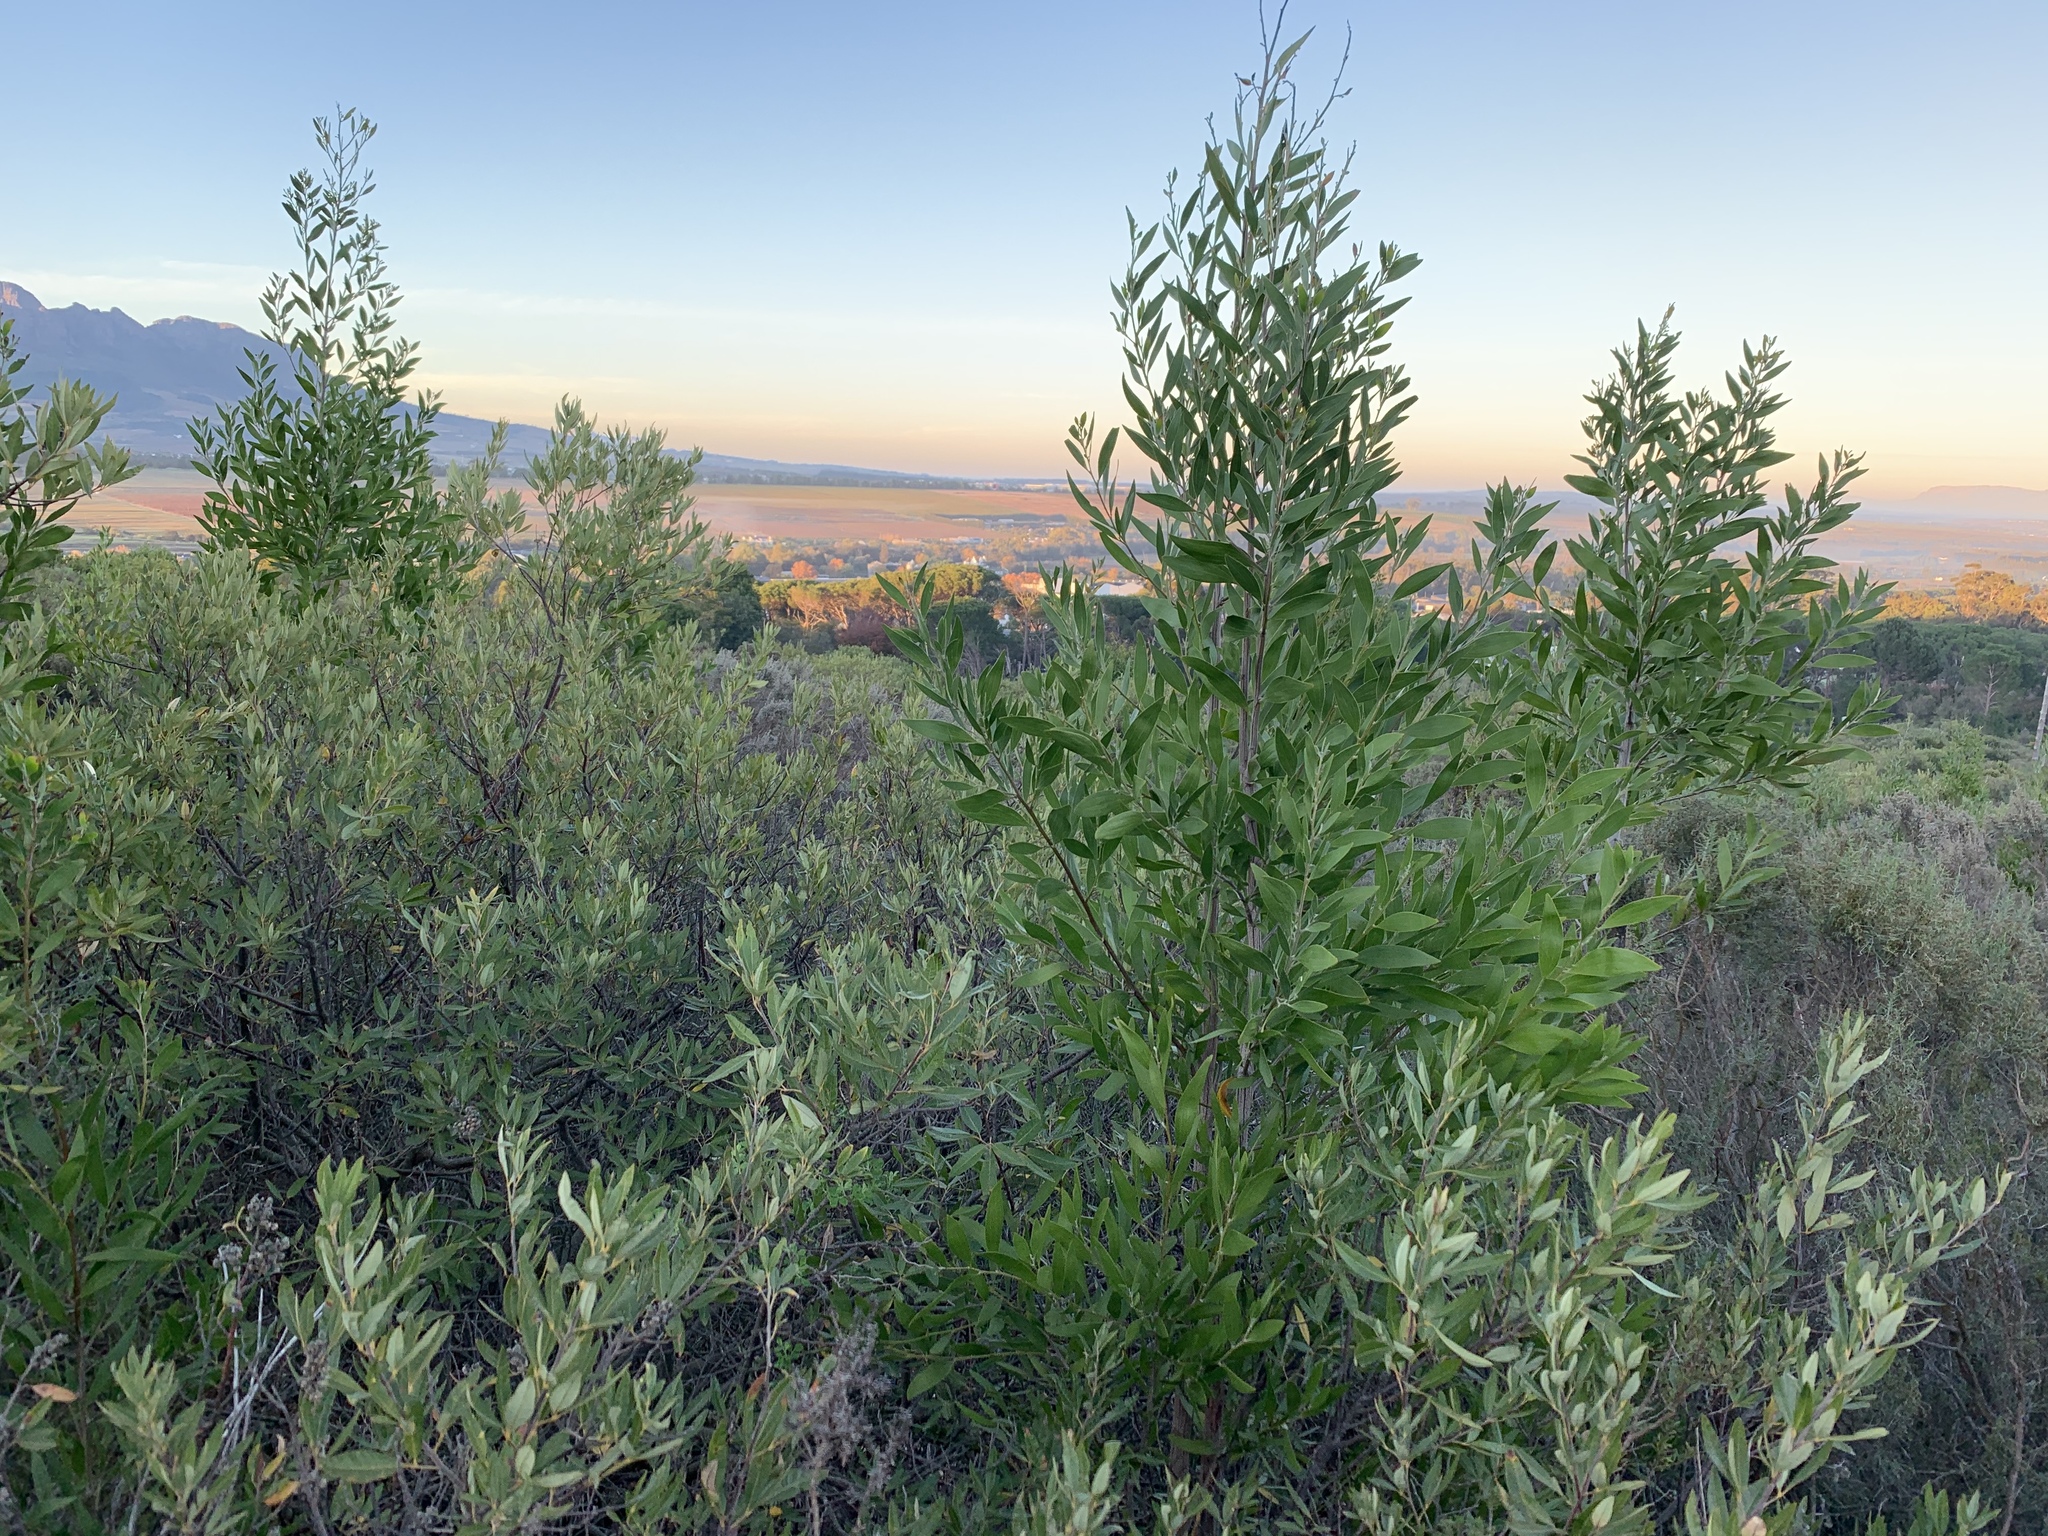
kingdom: Plantae
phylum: Tracheophyta
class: Magnoliopsida
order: Fabales
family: Fabaceae
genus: Acacia
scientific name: Acacia melanoxylon
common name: Blackwood
